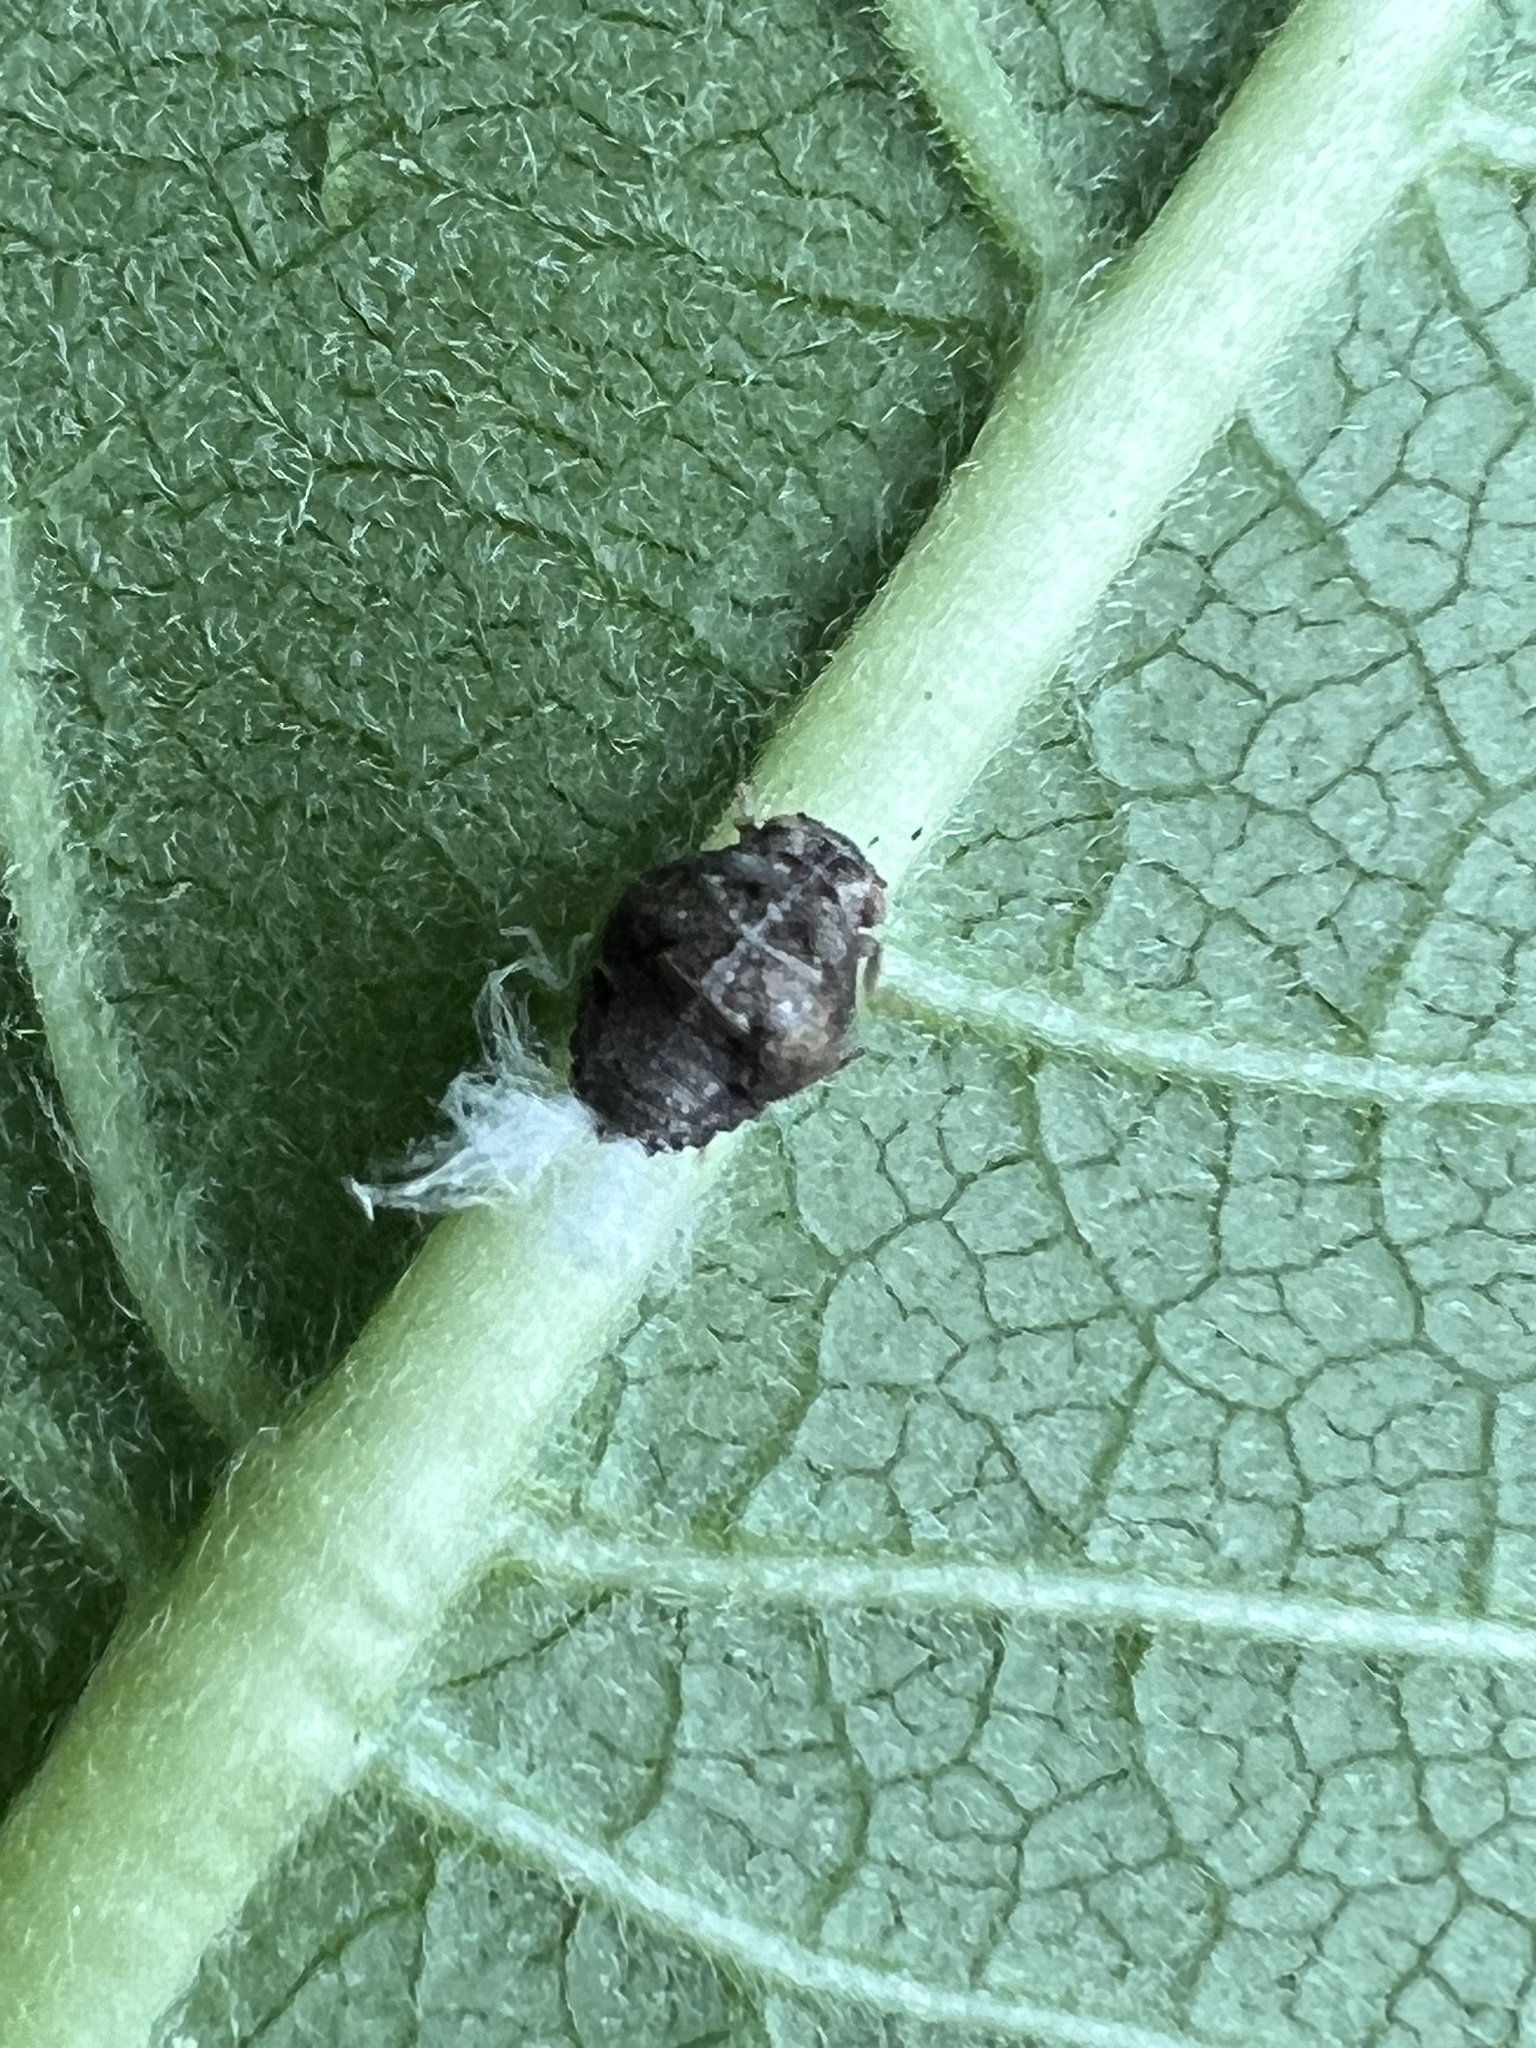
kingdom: Animalia
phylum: Arthropoda
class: Insecta
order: Hemiptera
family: Acanaloniidae
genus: Acanalonia
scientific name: Acanalonia bivittata
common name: Two-striped planthopper
